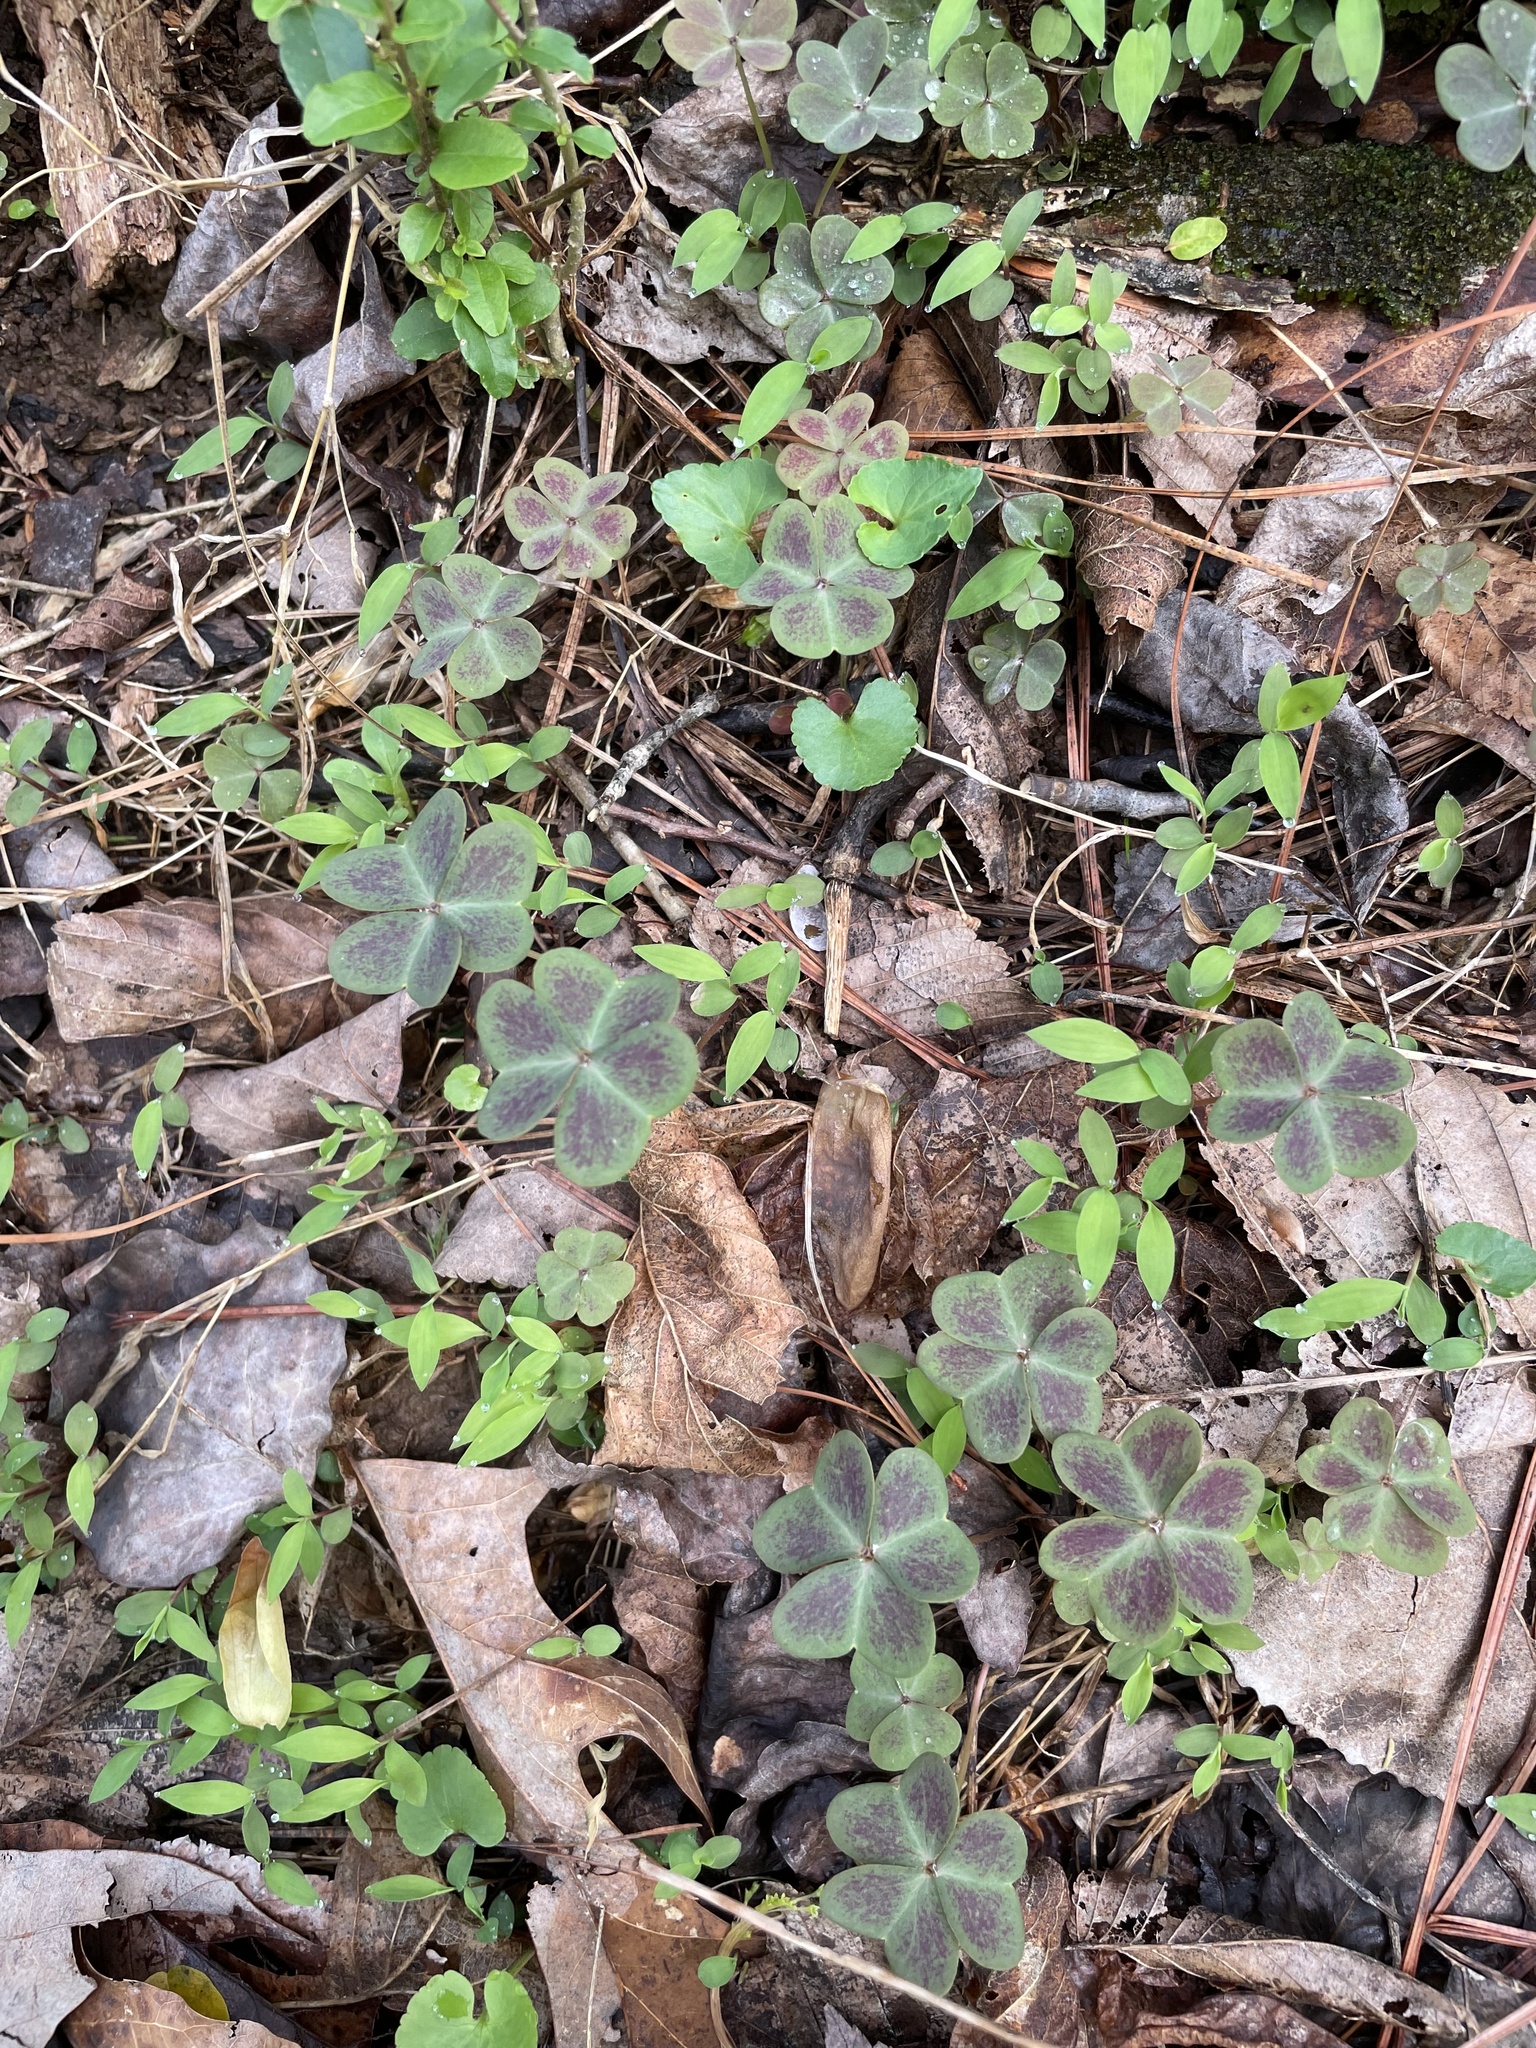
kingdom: Plantae
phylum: Tracheophyta
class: Magnoliopsida
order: Oxalidales
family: Oxalidaceae
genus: Oxalis
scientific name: Oxalis violacea
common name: Violet wood-sorrel
